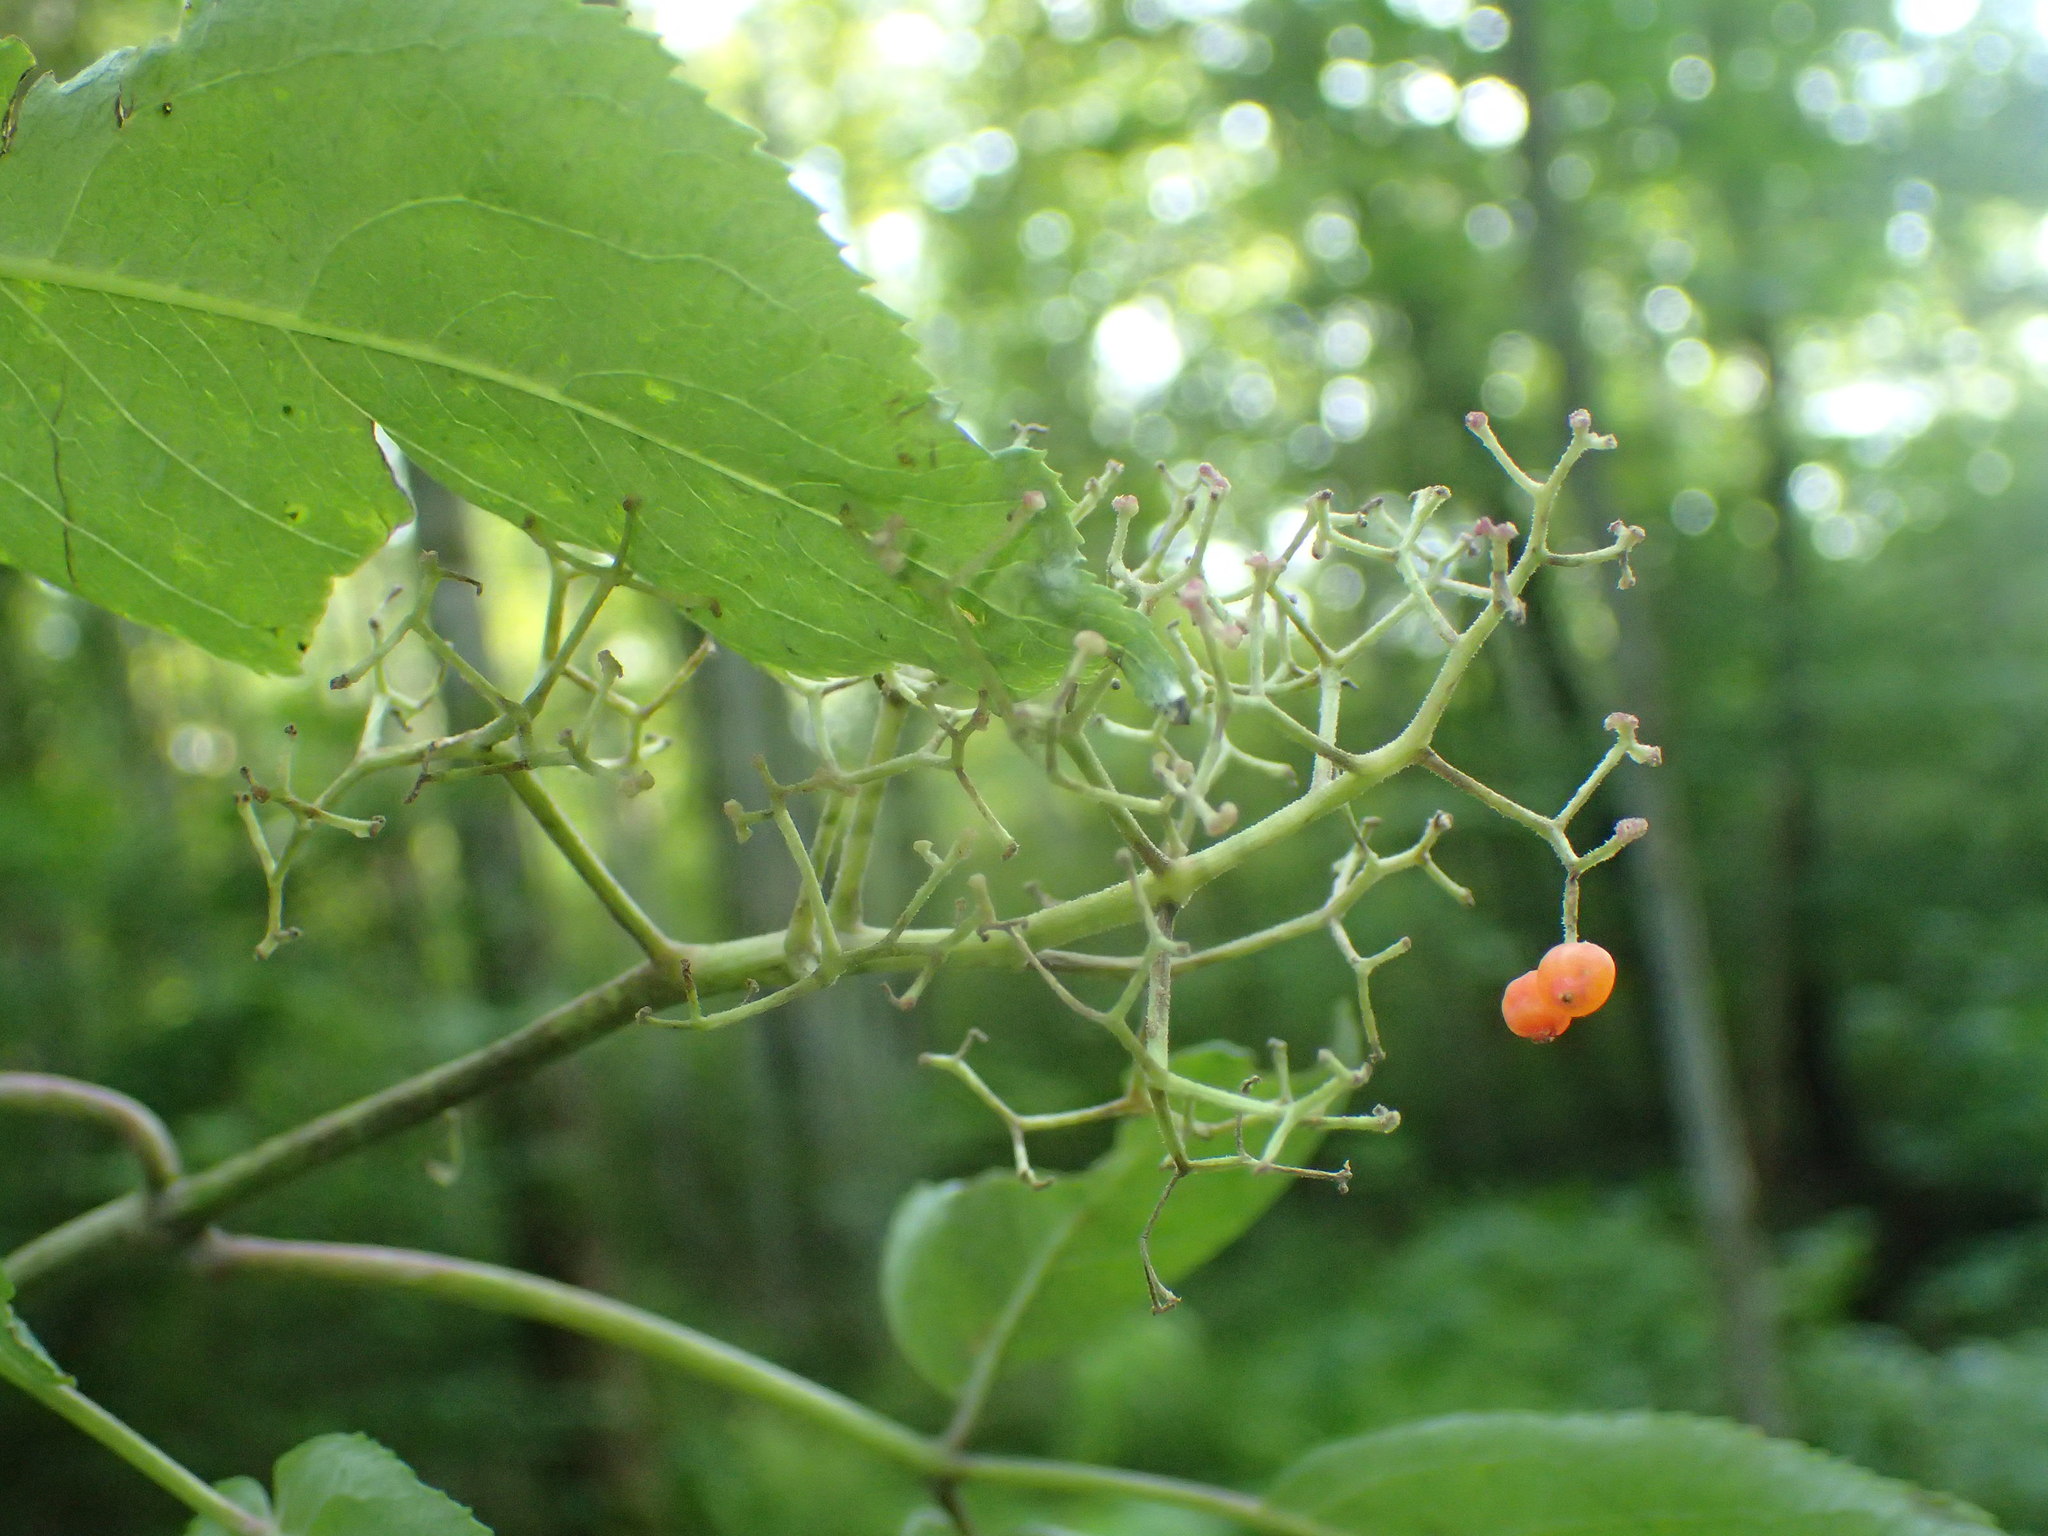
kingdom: Plantae
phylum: Tracheophyta
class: Magnoliopsida
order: Dipsacales
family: Viburnaceae
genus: Sambucus
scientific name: Sambucus racemosa
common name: Red-berried elder
